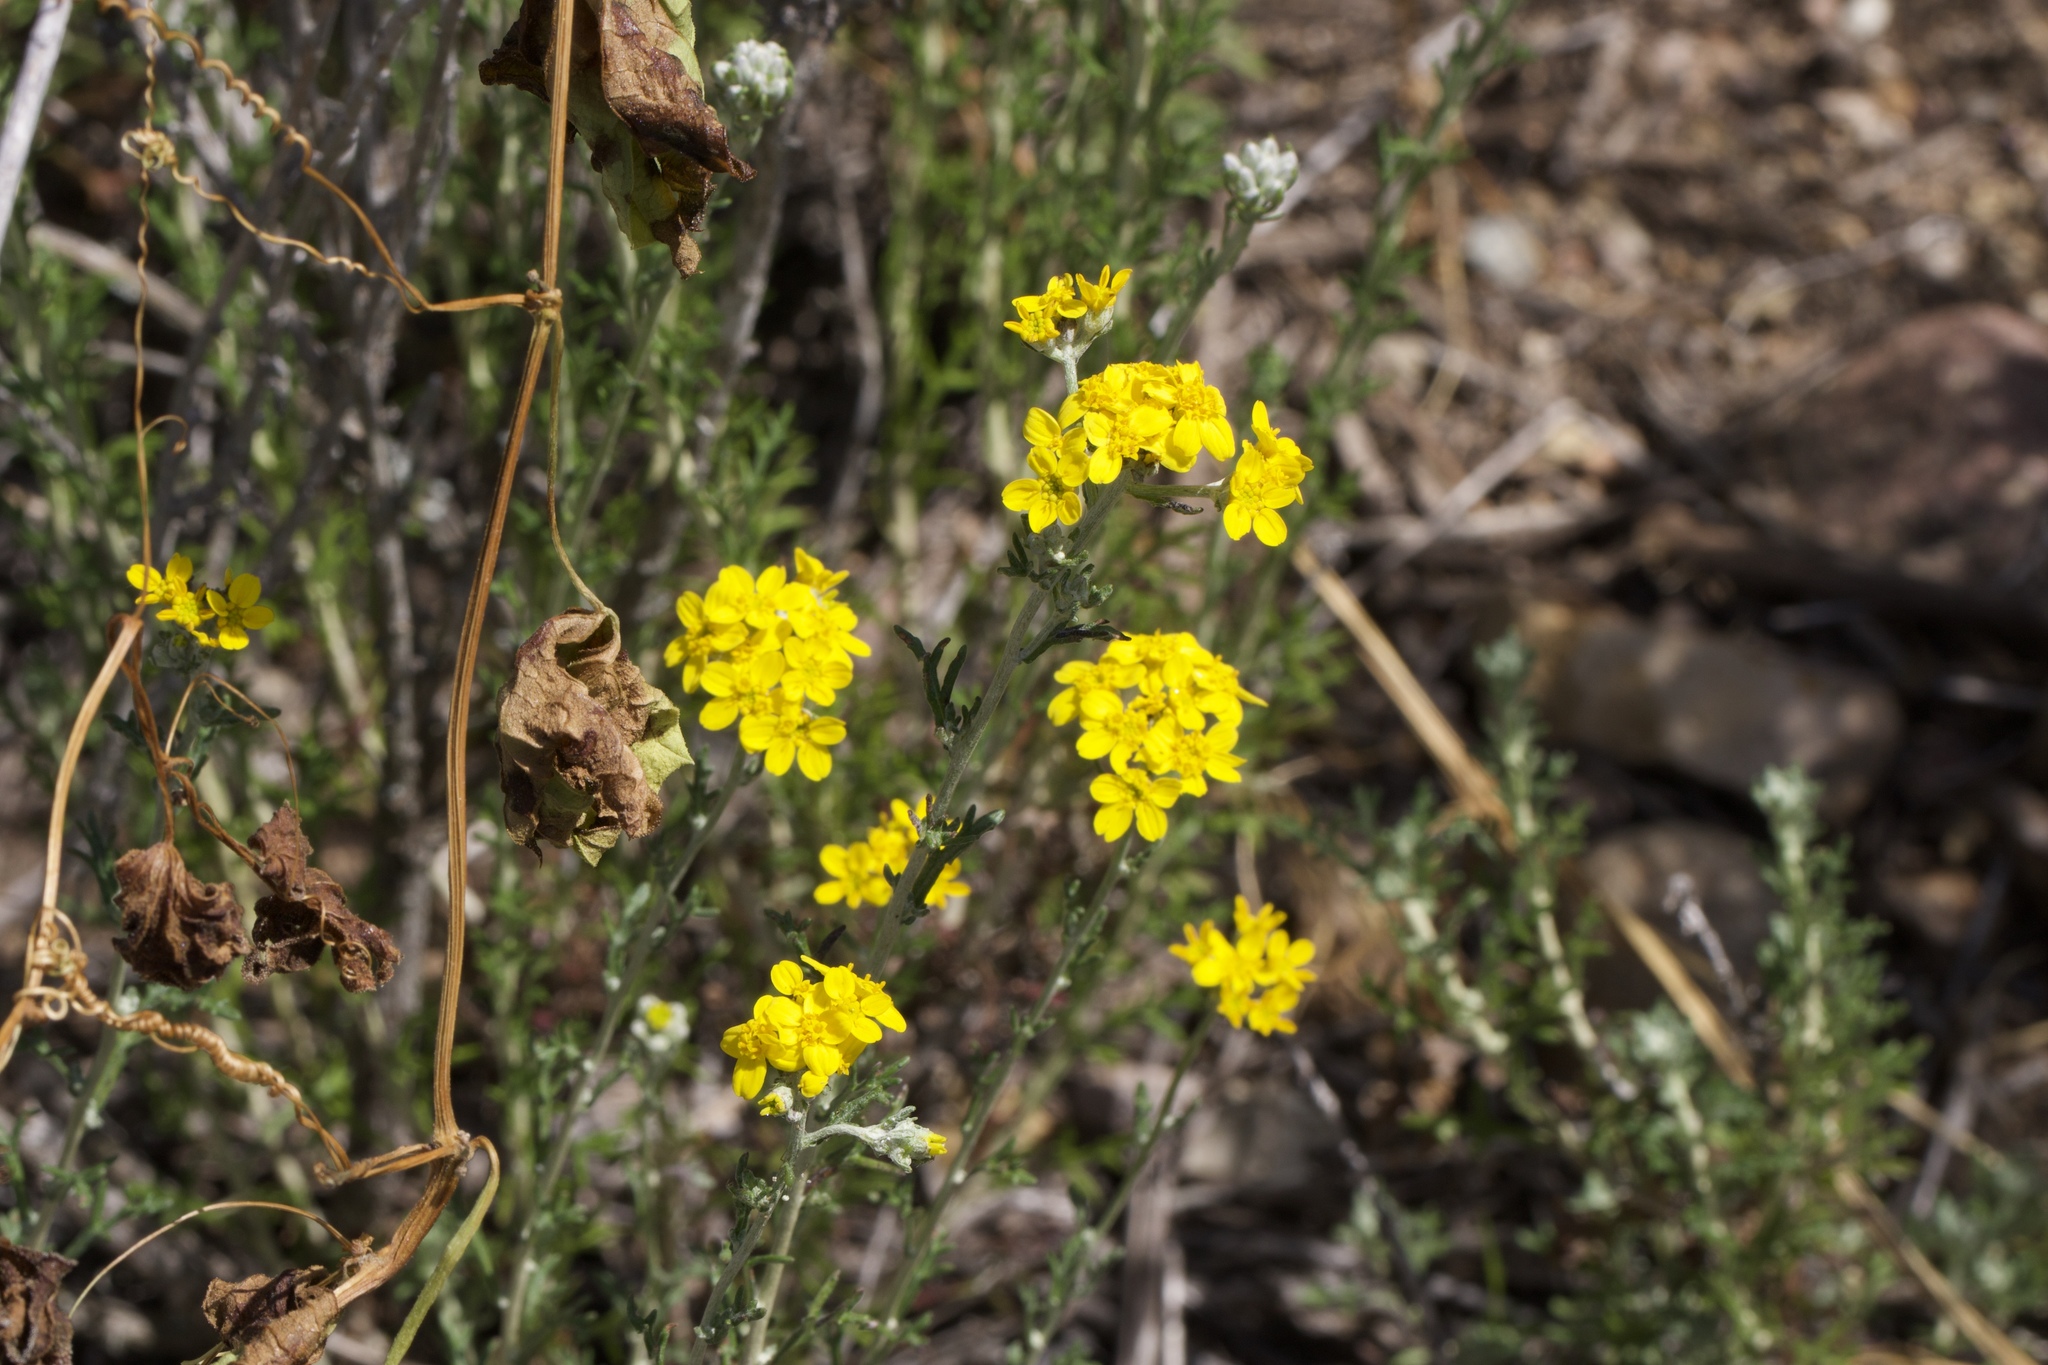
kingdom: Plantae
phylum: Tracheophyta
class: Magnoliopsida
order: Asterales
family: Asteraceae
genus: Eriophyllum
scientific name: Eriophyllum confertiflorum
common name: Golden-yarrow
